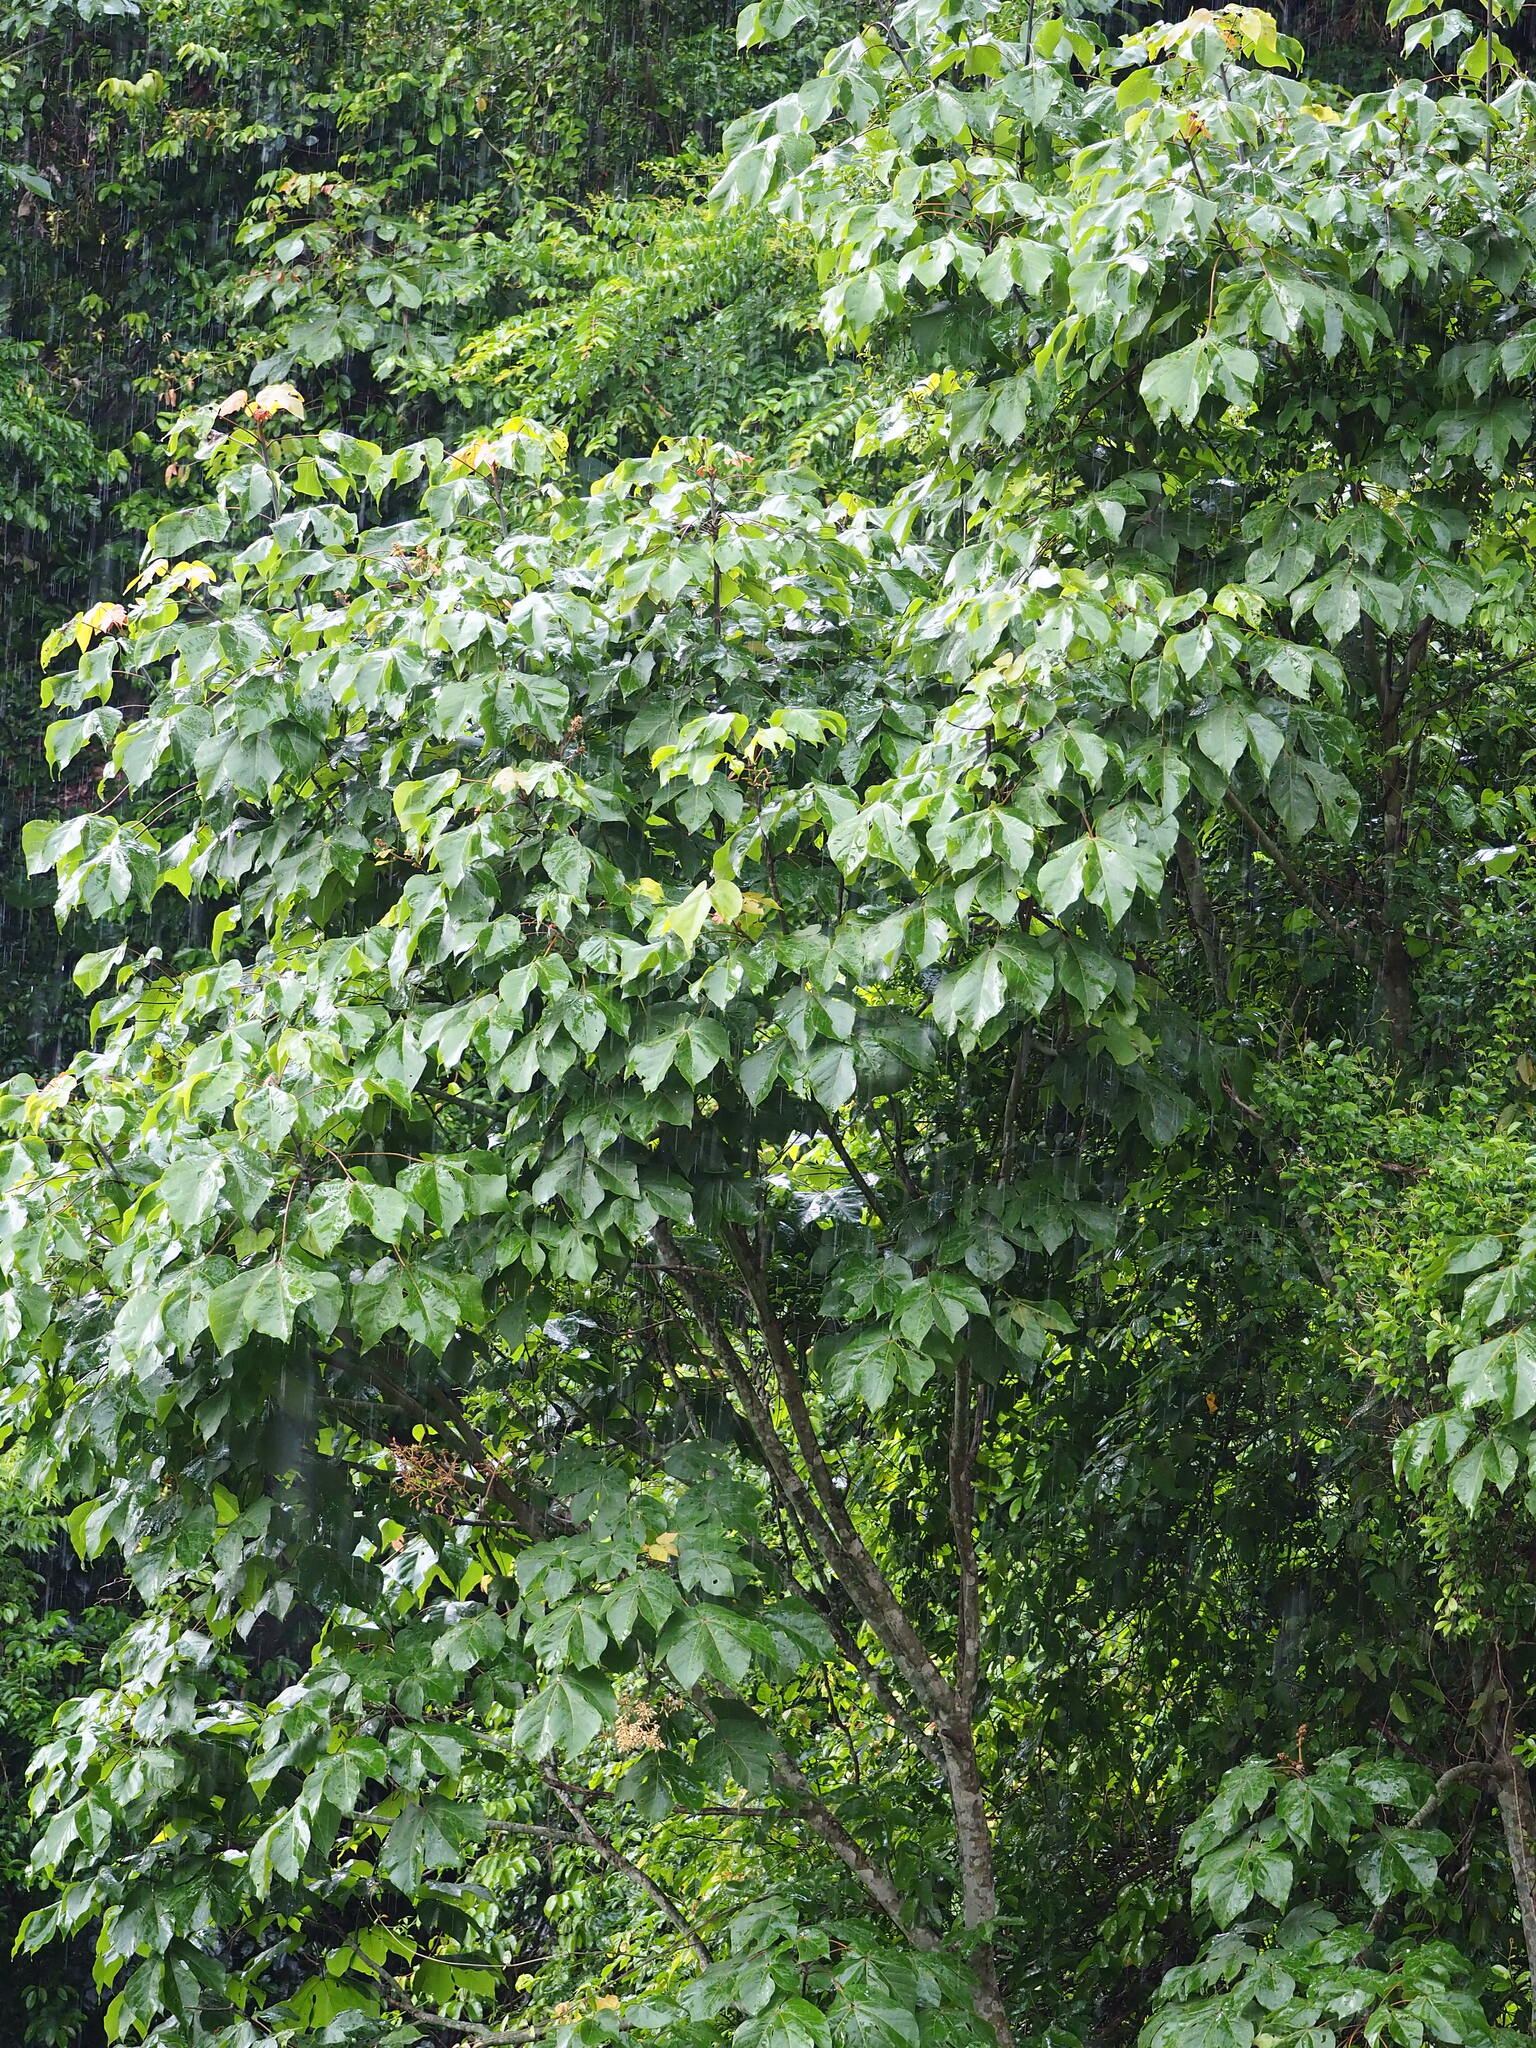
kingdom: Plantae
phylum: Tracheophyta
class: Magnoliopsida
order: Malvales
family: Malvaceae
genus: Firmiana
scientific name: Firmiana simplex
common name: Chinese parasoltree
